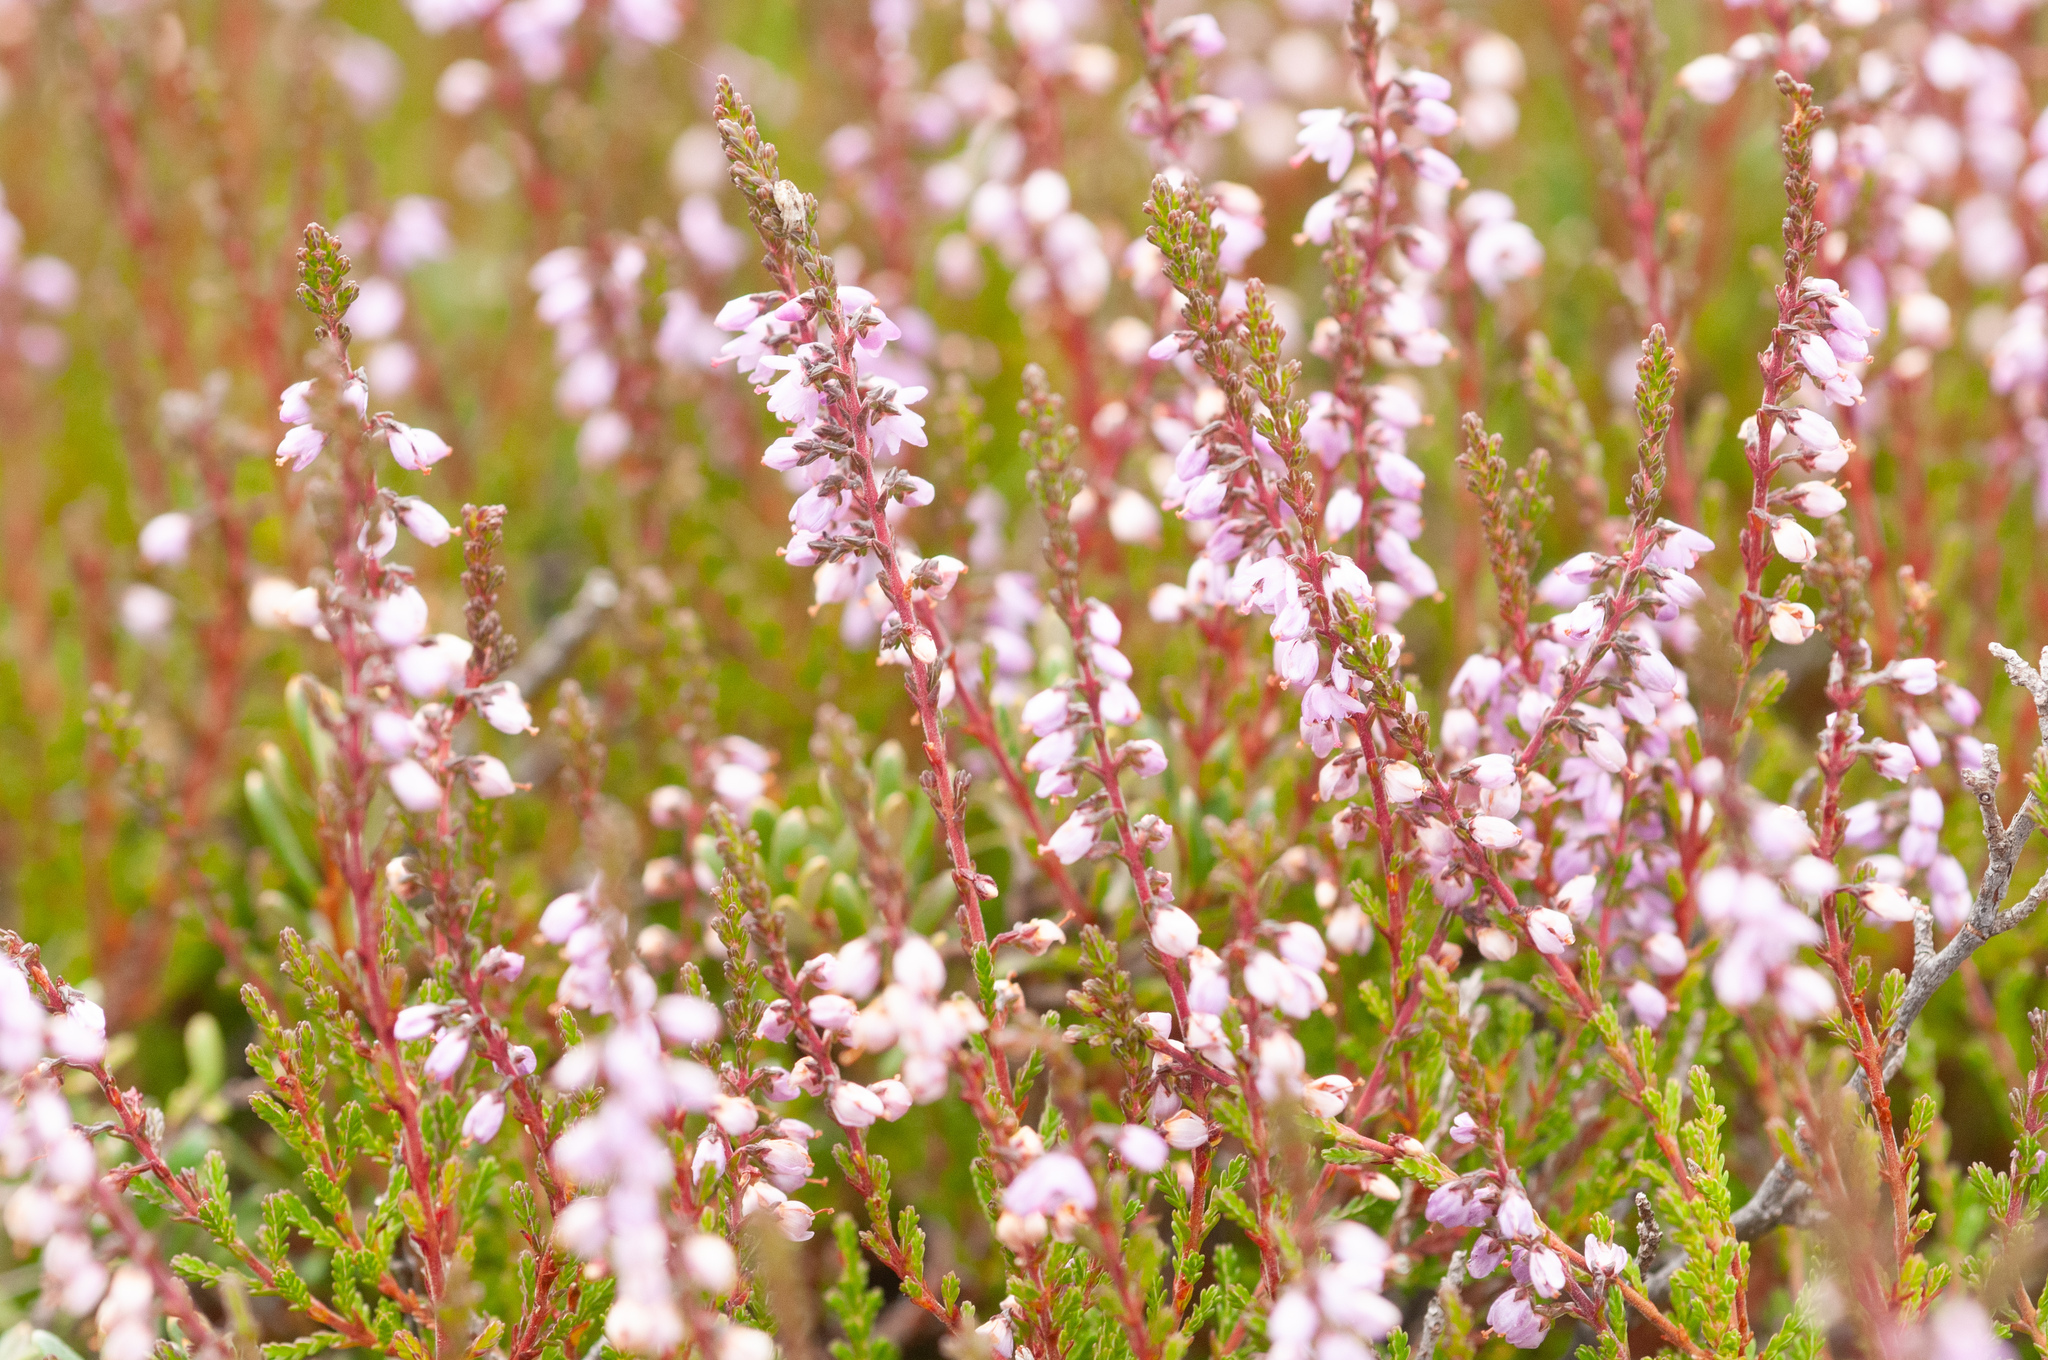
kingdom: Plantae
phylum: Tracheophyta
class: Magnoliopsida
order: Ericales
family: Ericaceae
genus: Calluna
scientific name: Calluna vulgaris
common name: Heather
